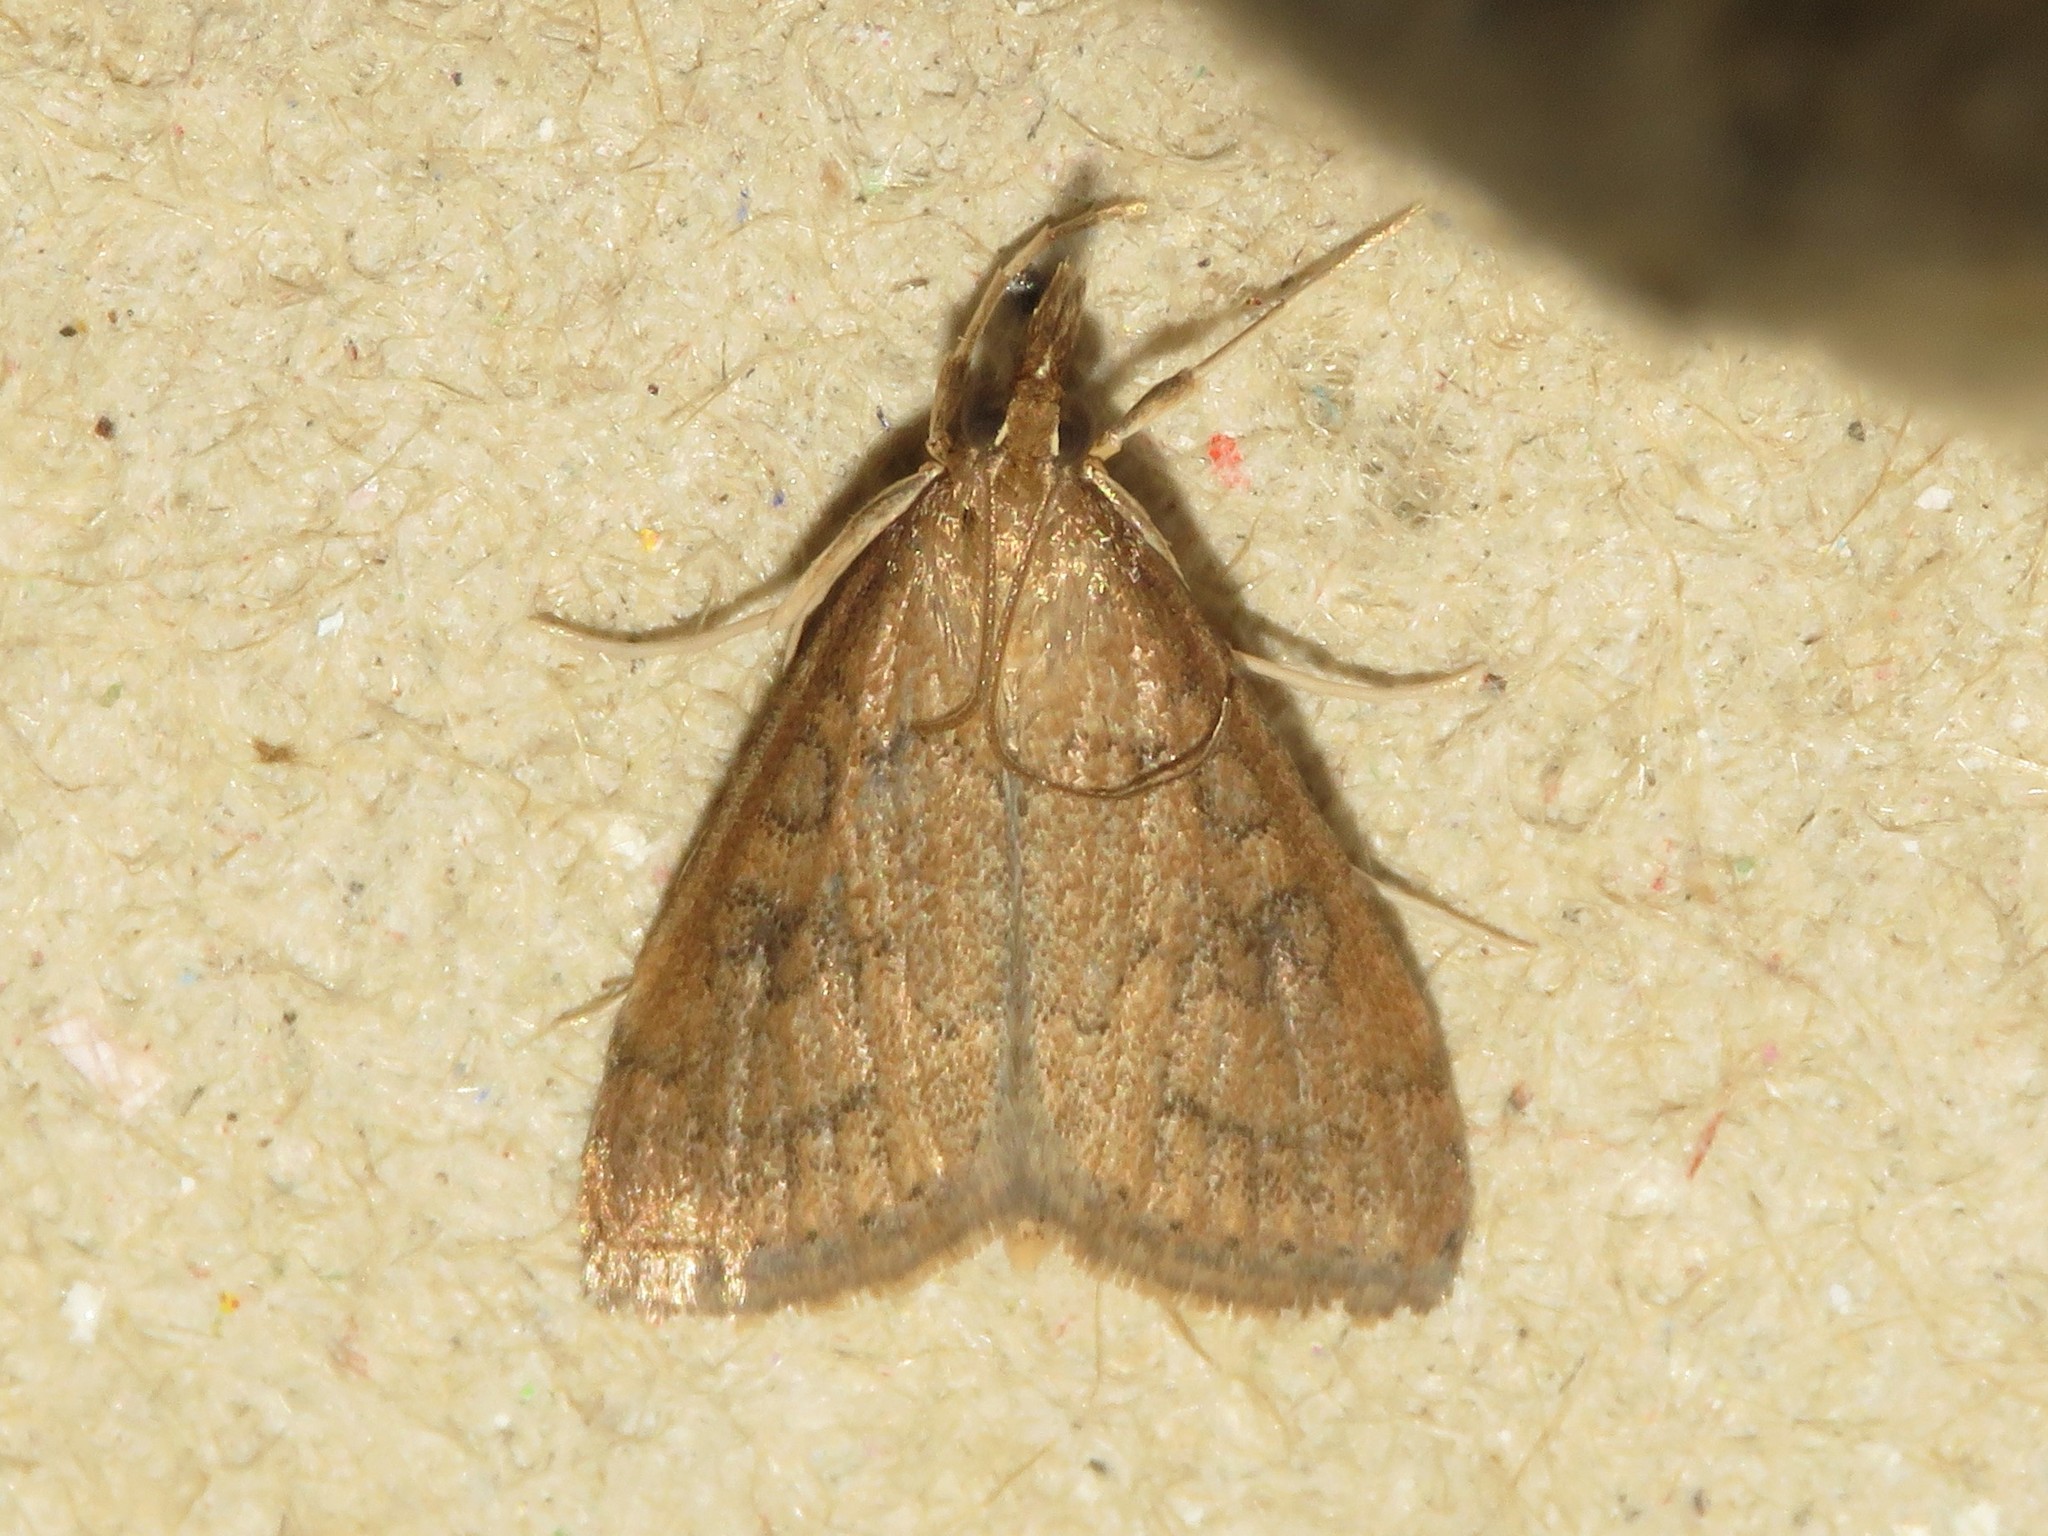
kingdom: Animalia
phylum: Arthropoda
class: Insecta
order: Lepidoptera
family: Crambidae
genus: Udea
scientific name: Udea rubigalis
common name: Celery leaftier moth
